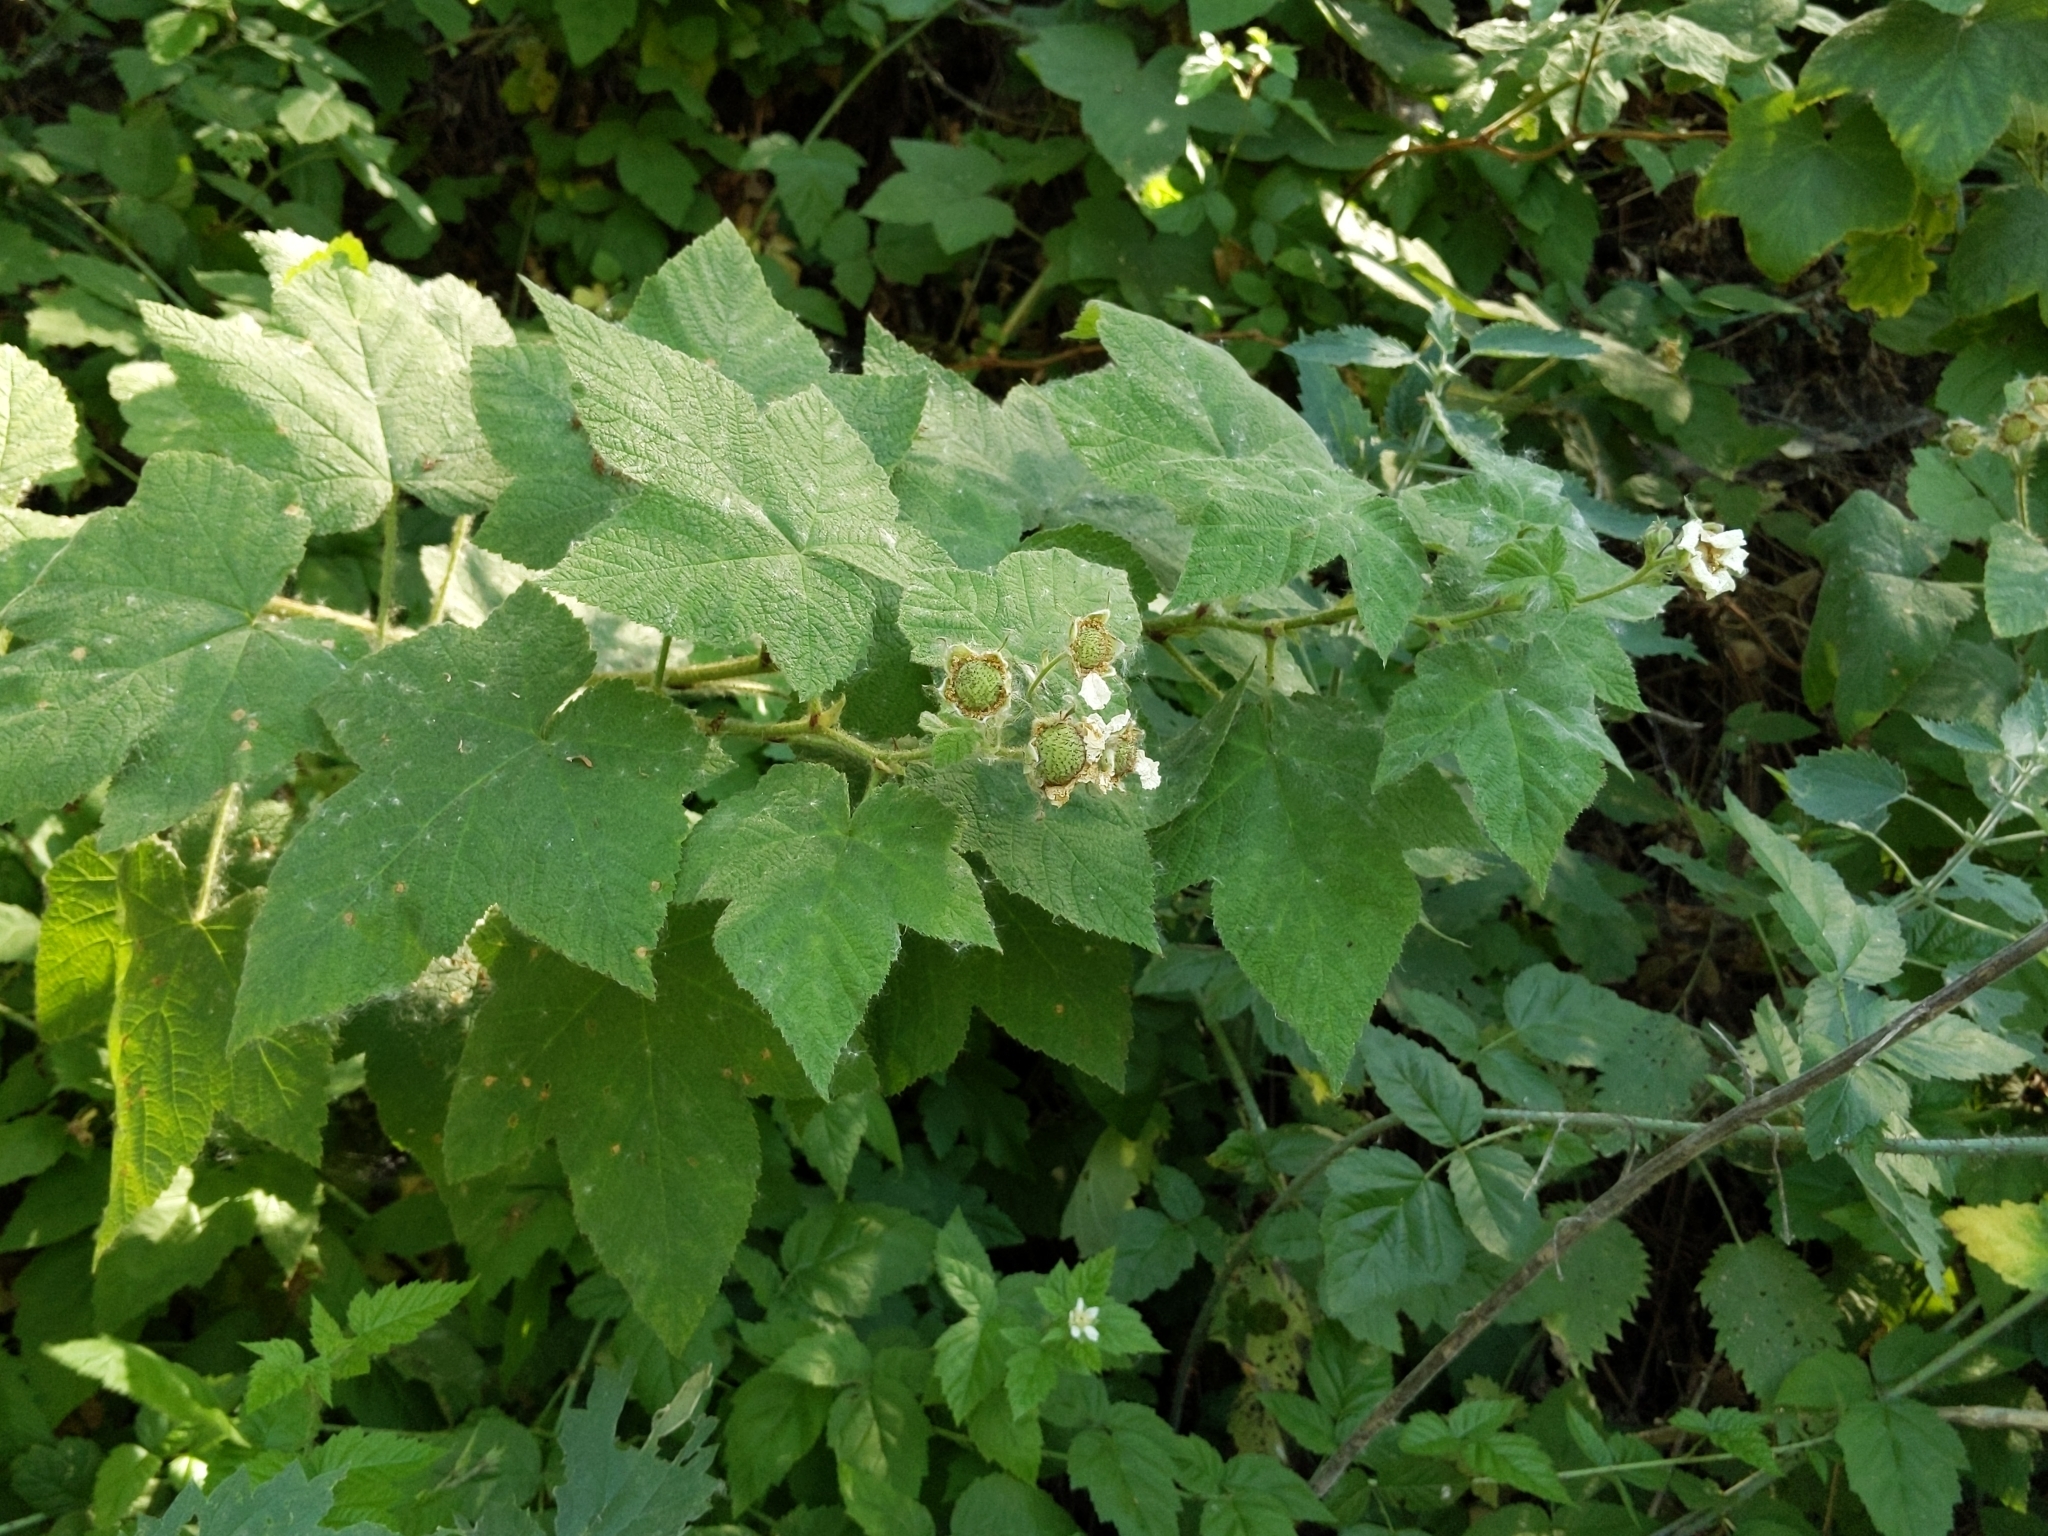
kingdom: Plantae
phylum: Tracheophyta
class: Magnoliopsida
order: Rosales
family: Rosaceae
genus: Rubus
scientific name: Rubus parviflorus
